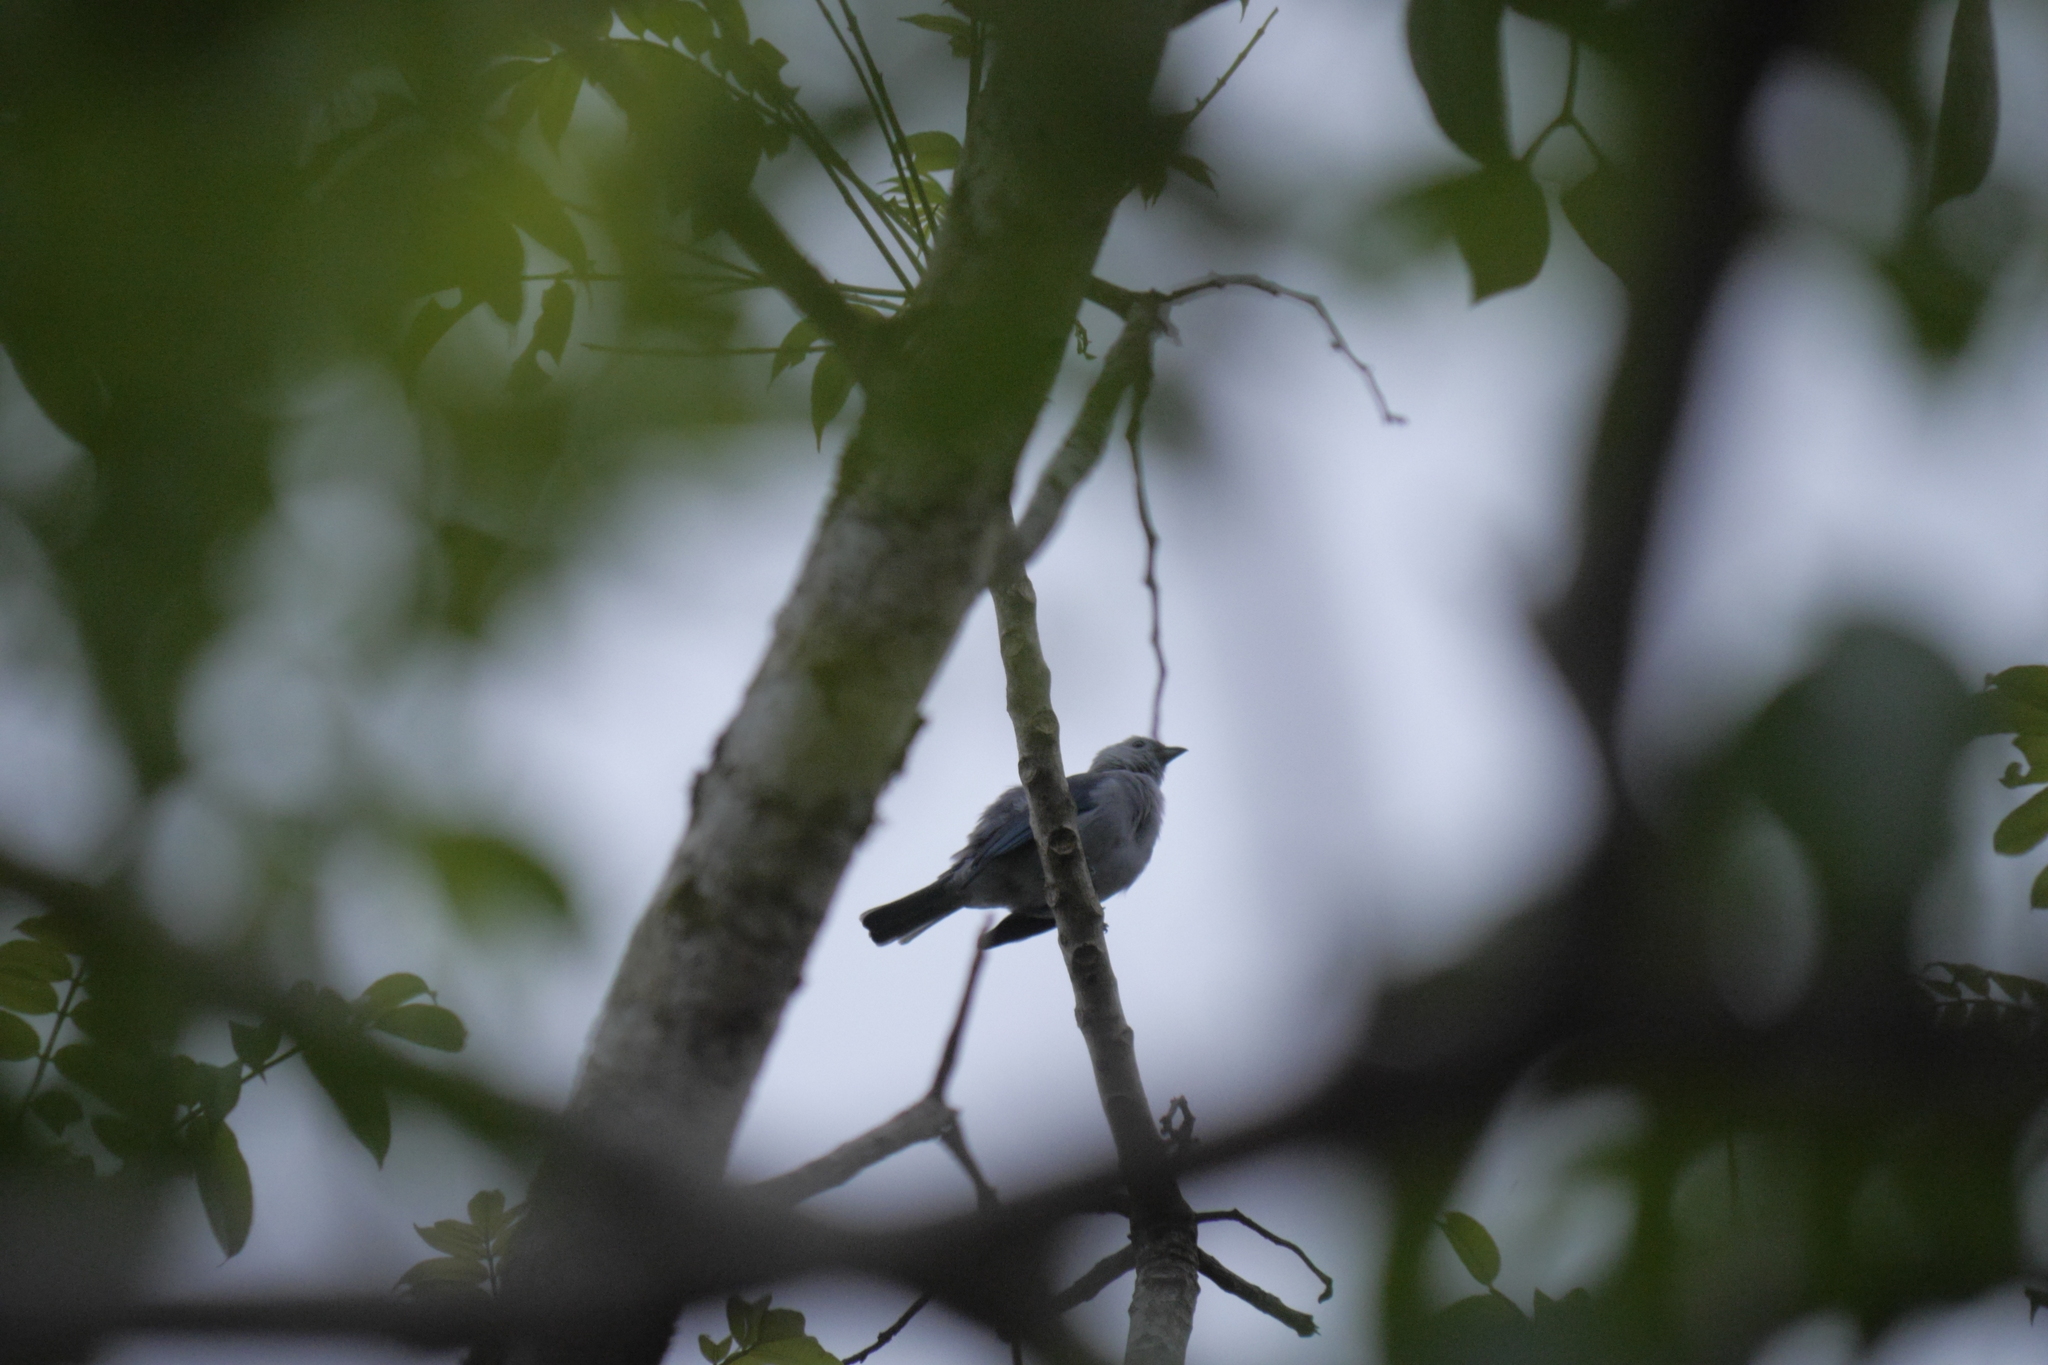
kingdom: Animalia
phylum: Chordata
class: Aves
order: Passeriformes
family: Thraupidae
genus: Thraupis
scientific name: Thraupis episcopus
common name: Blue-grey tanager
